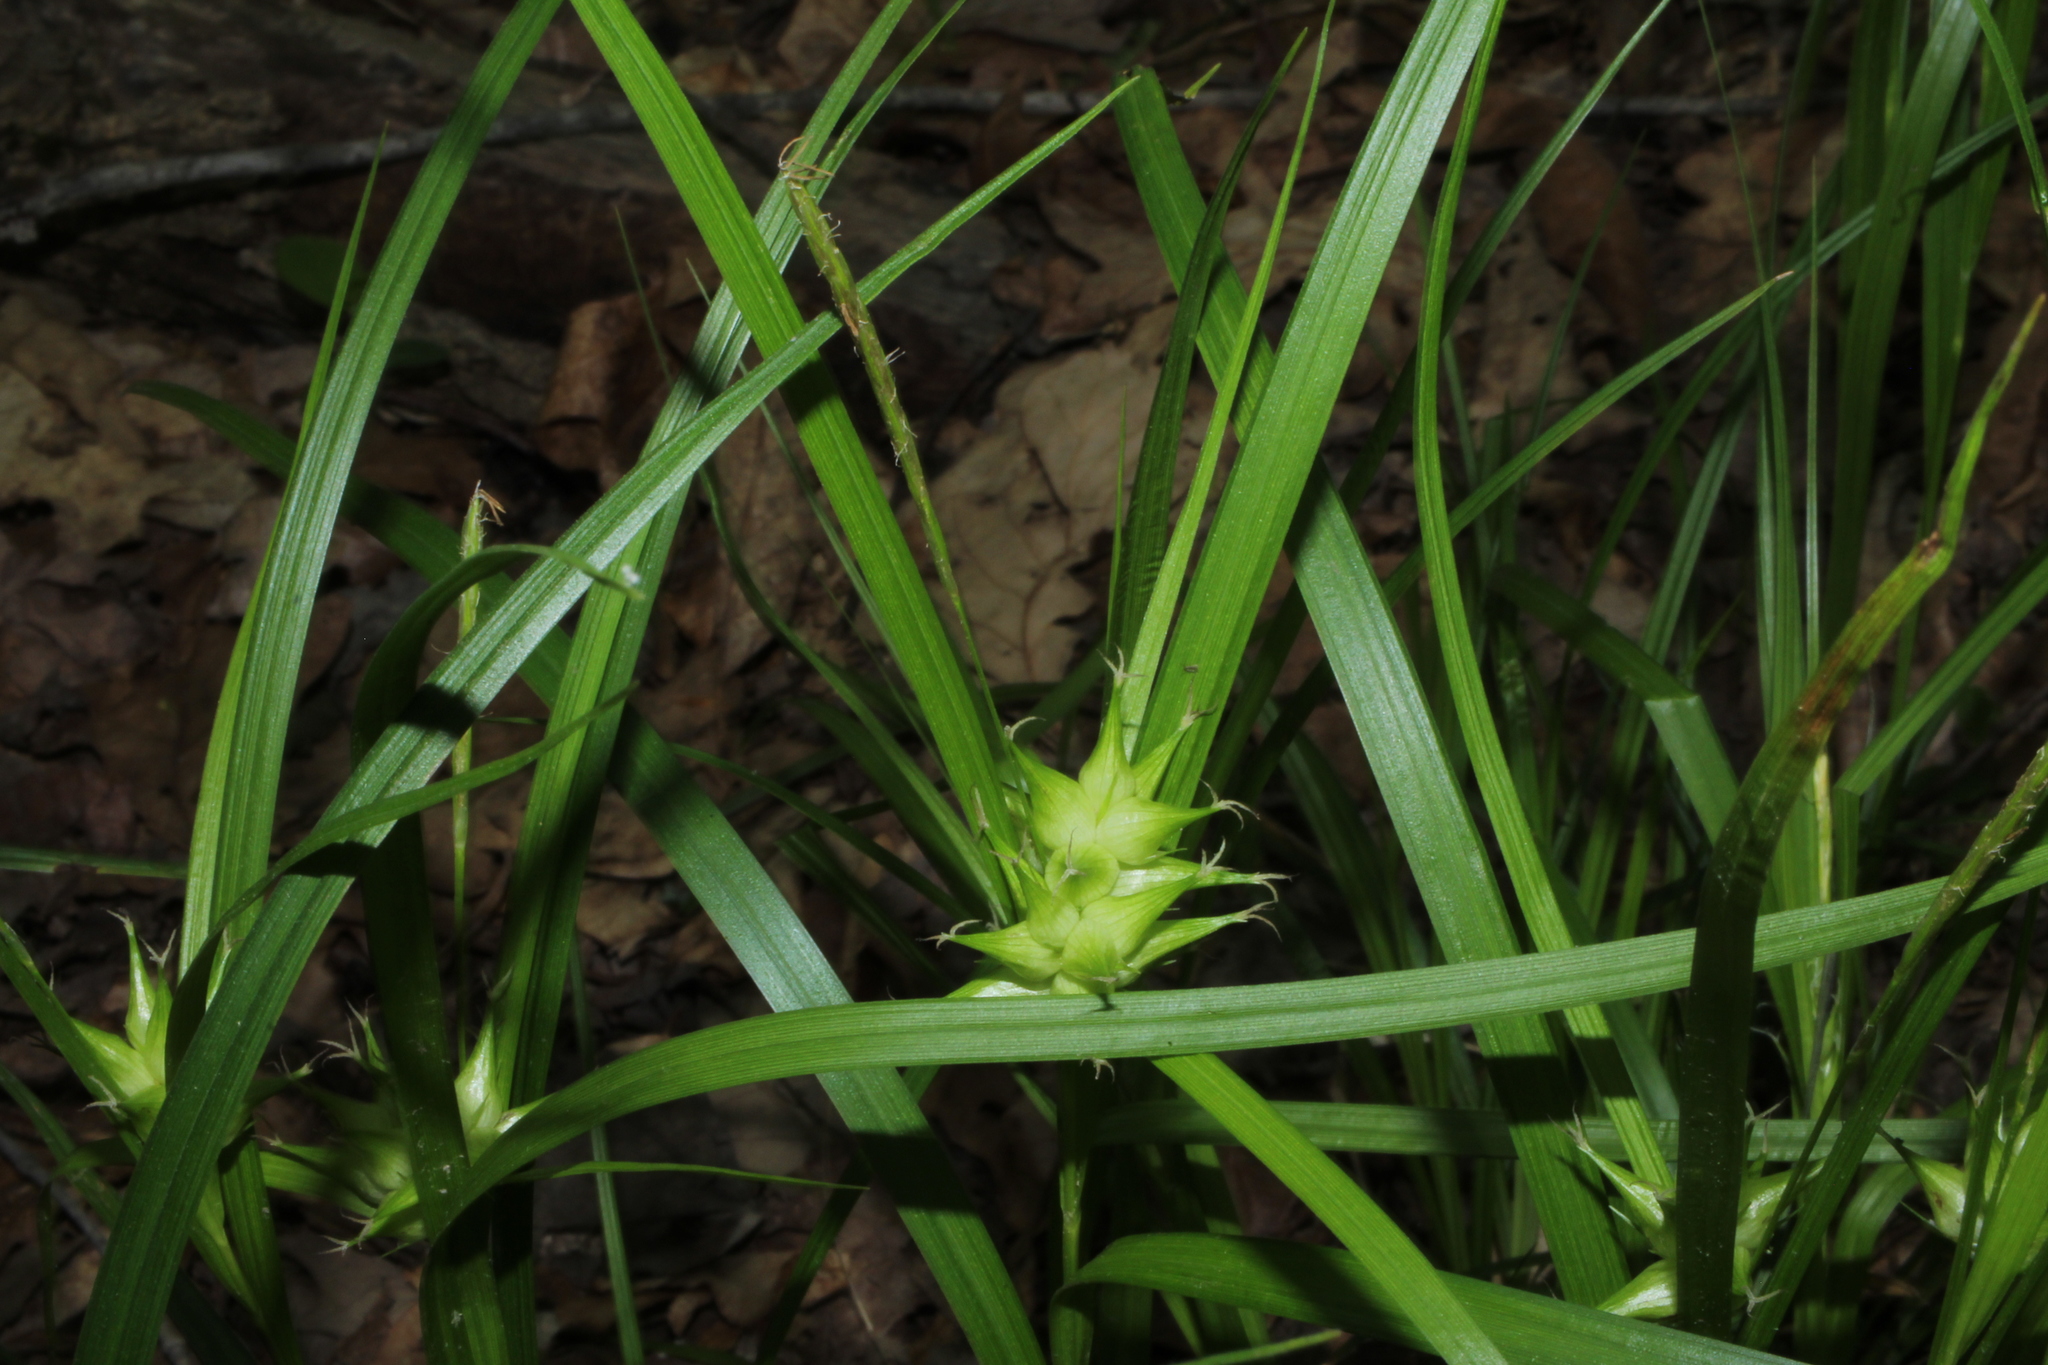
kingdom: Plantae
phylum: Tracheophyta
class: Liliopsida
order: Poales
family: Cyperaceae
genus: Carex
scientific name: Carex intumescens
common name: Greater bladder sedge
